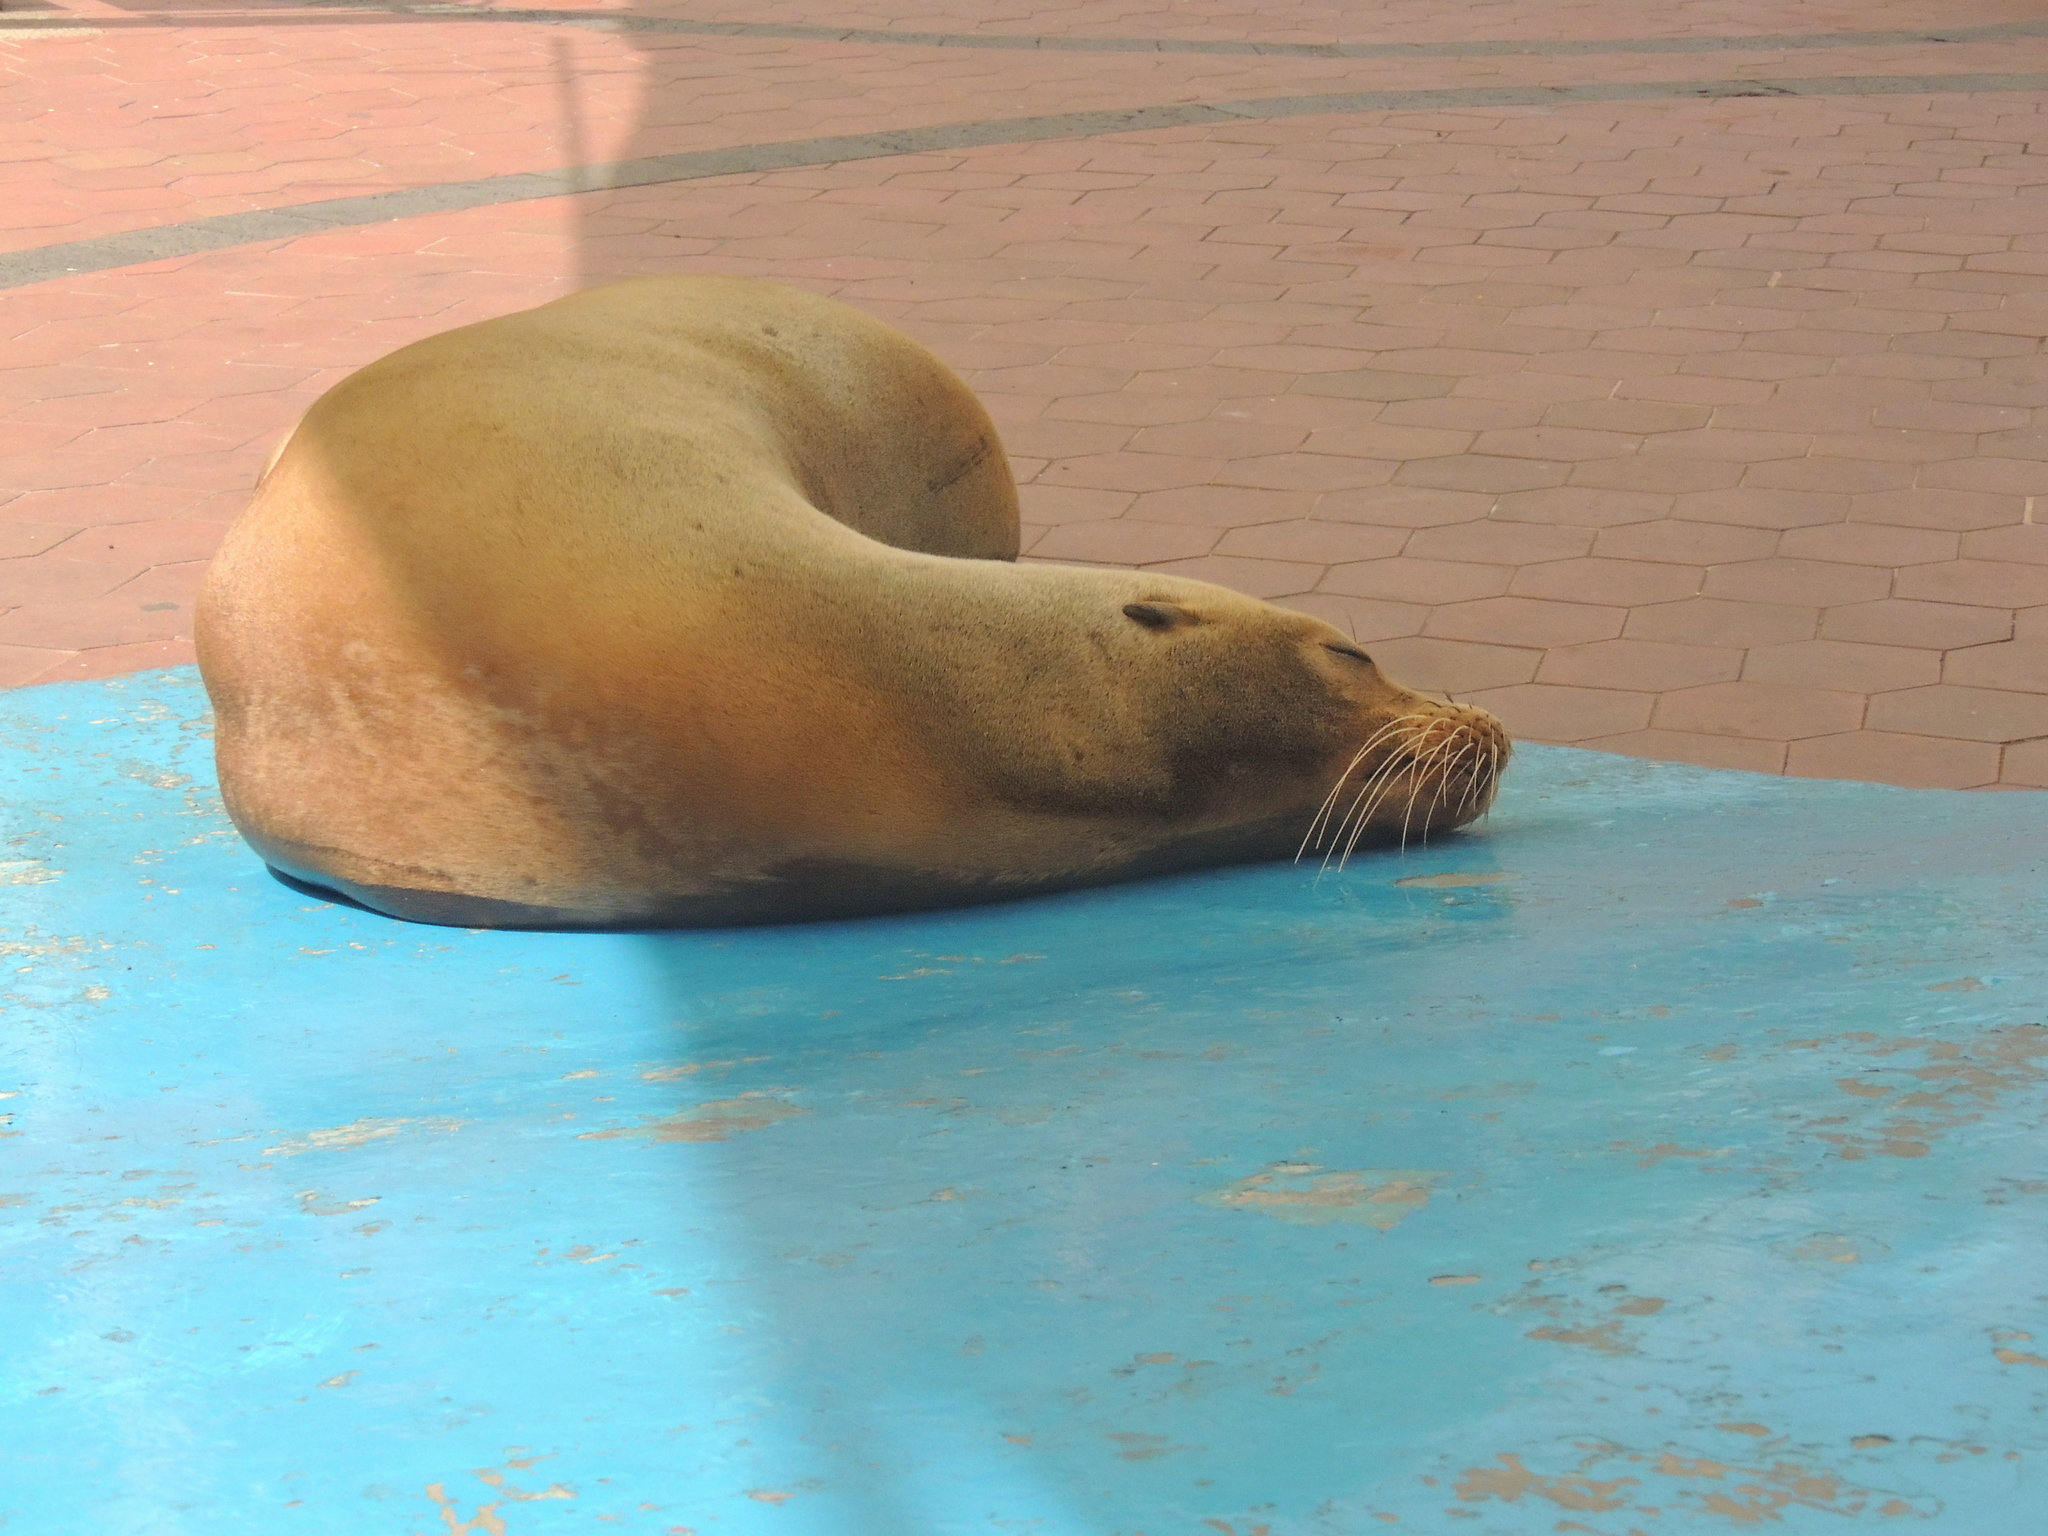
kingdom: Animalia
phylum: Chordata
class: Mammalia
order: Carnivora
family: Otariidae
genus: Zalophus
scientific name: Zalophus wollebaeki
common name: Galapagos sea lion
